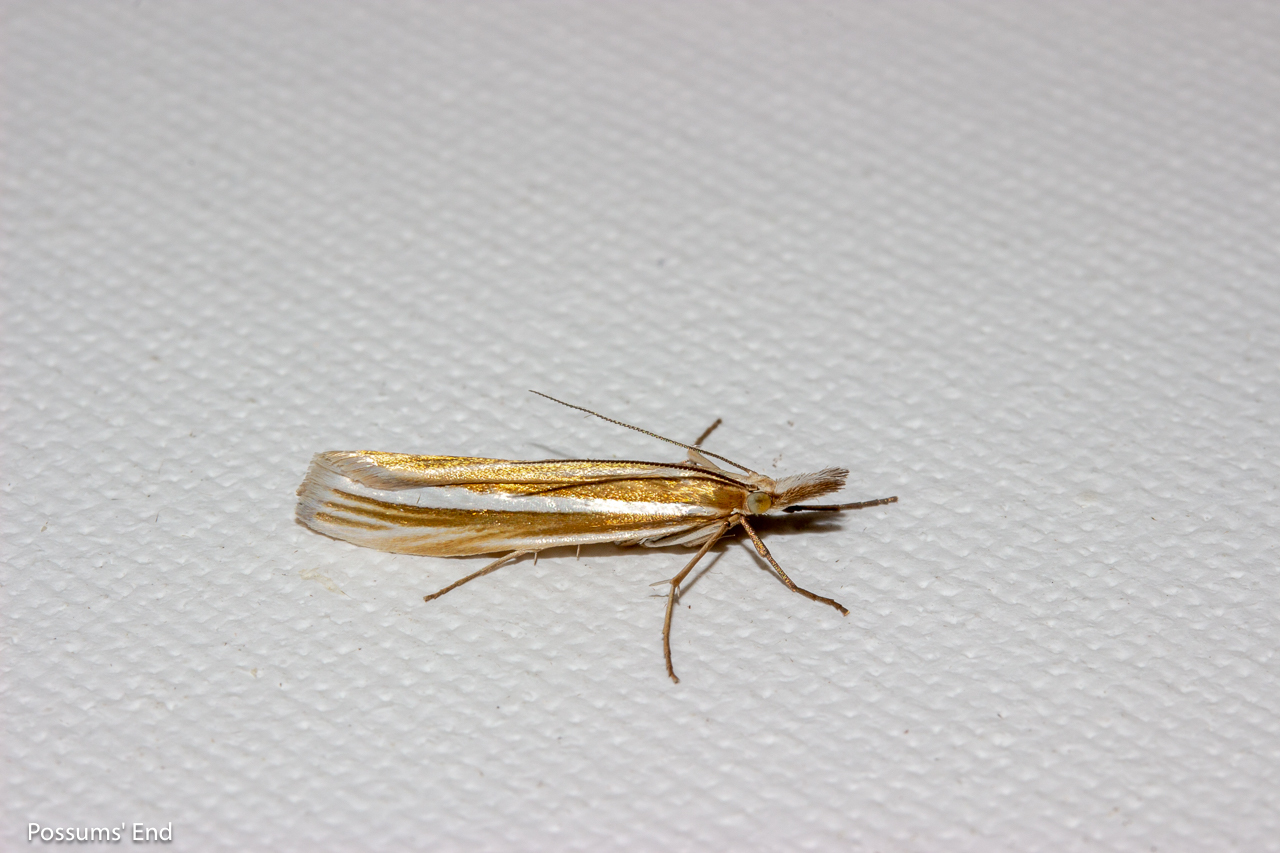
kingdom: Animalia
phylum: Arthropoda
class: Insecta
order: Lepidoptera
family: Crambidae
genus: Orocrambus
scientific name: Orocrambus lewisi
